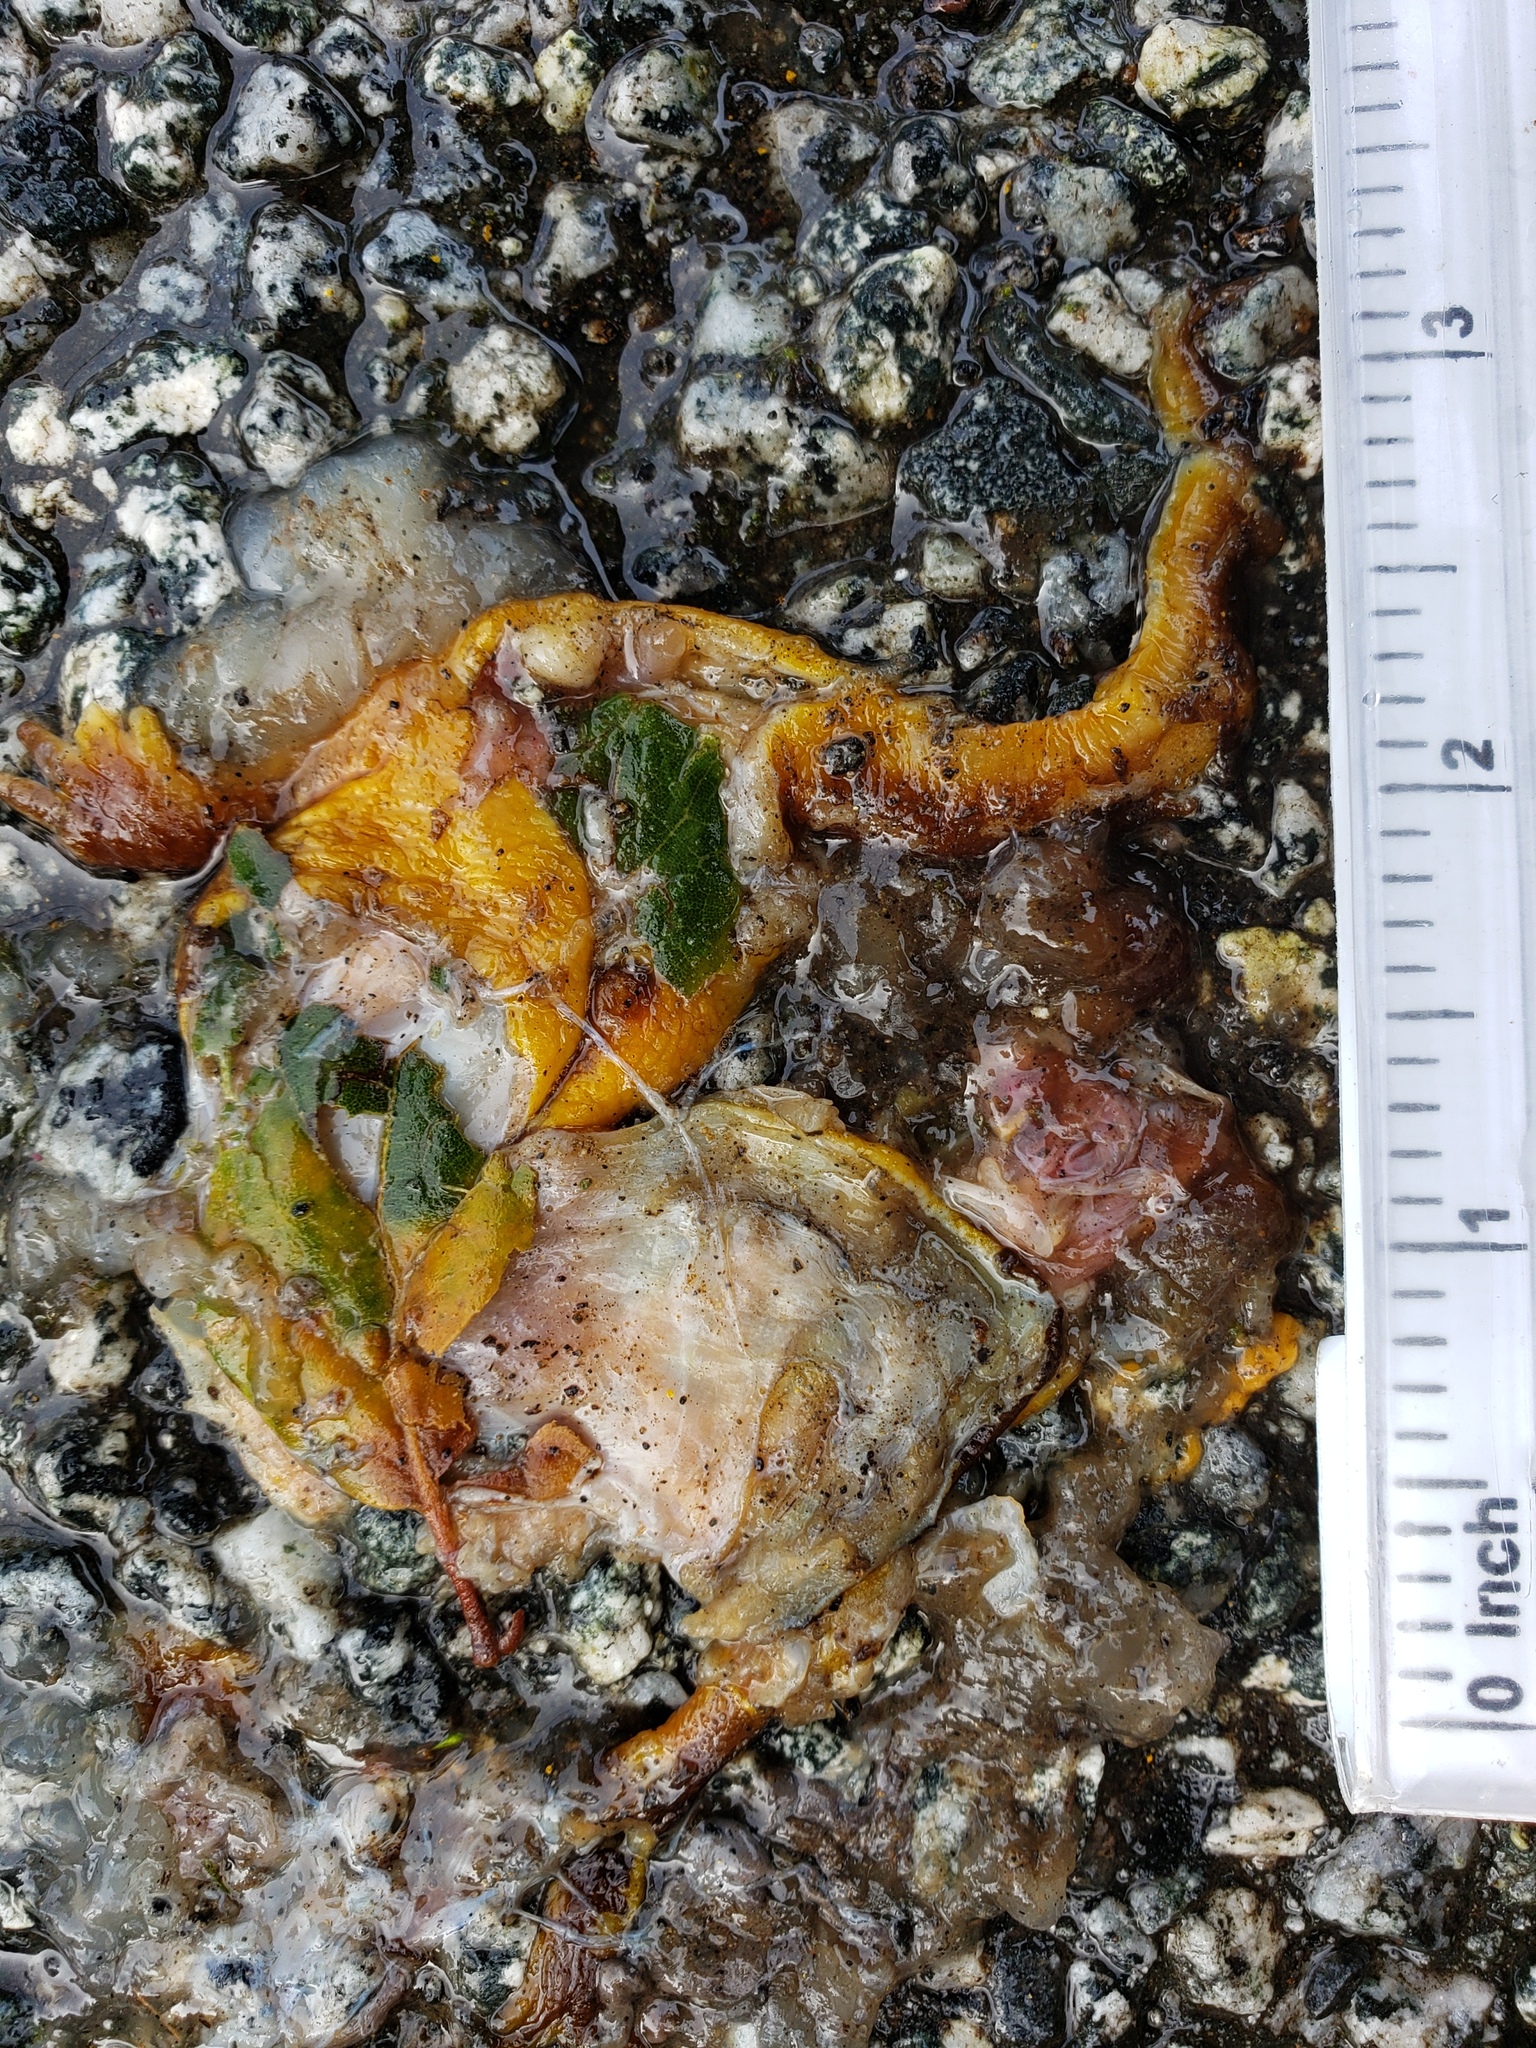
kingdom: Animalia
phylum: Chordata
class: Amphibia
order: Caudata
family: Salamandridae
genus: Taricha
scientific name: Taricha
